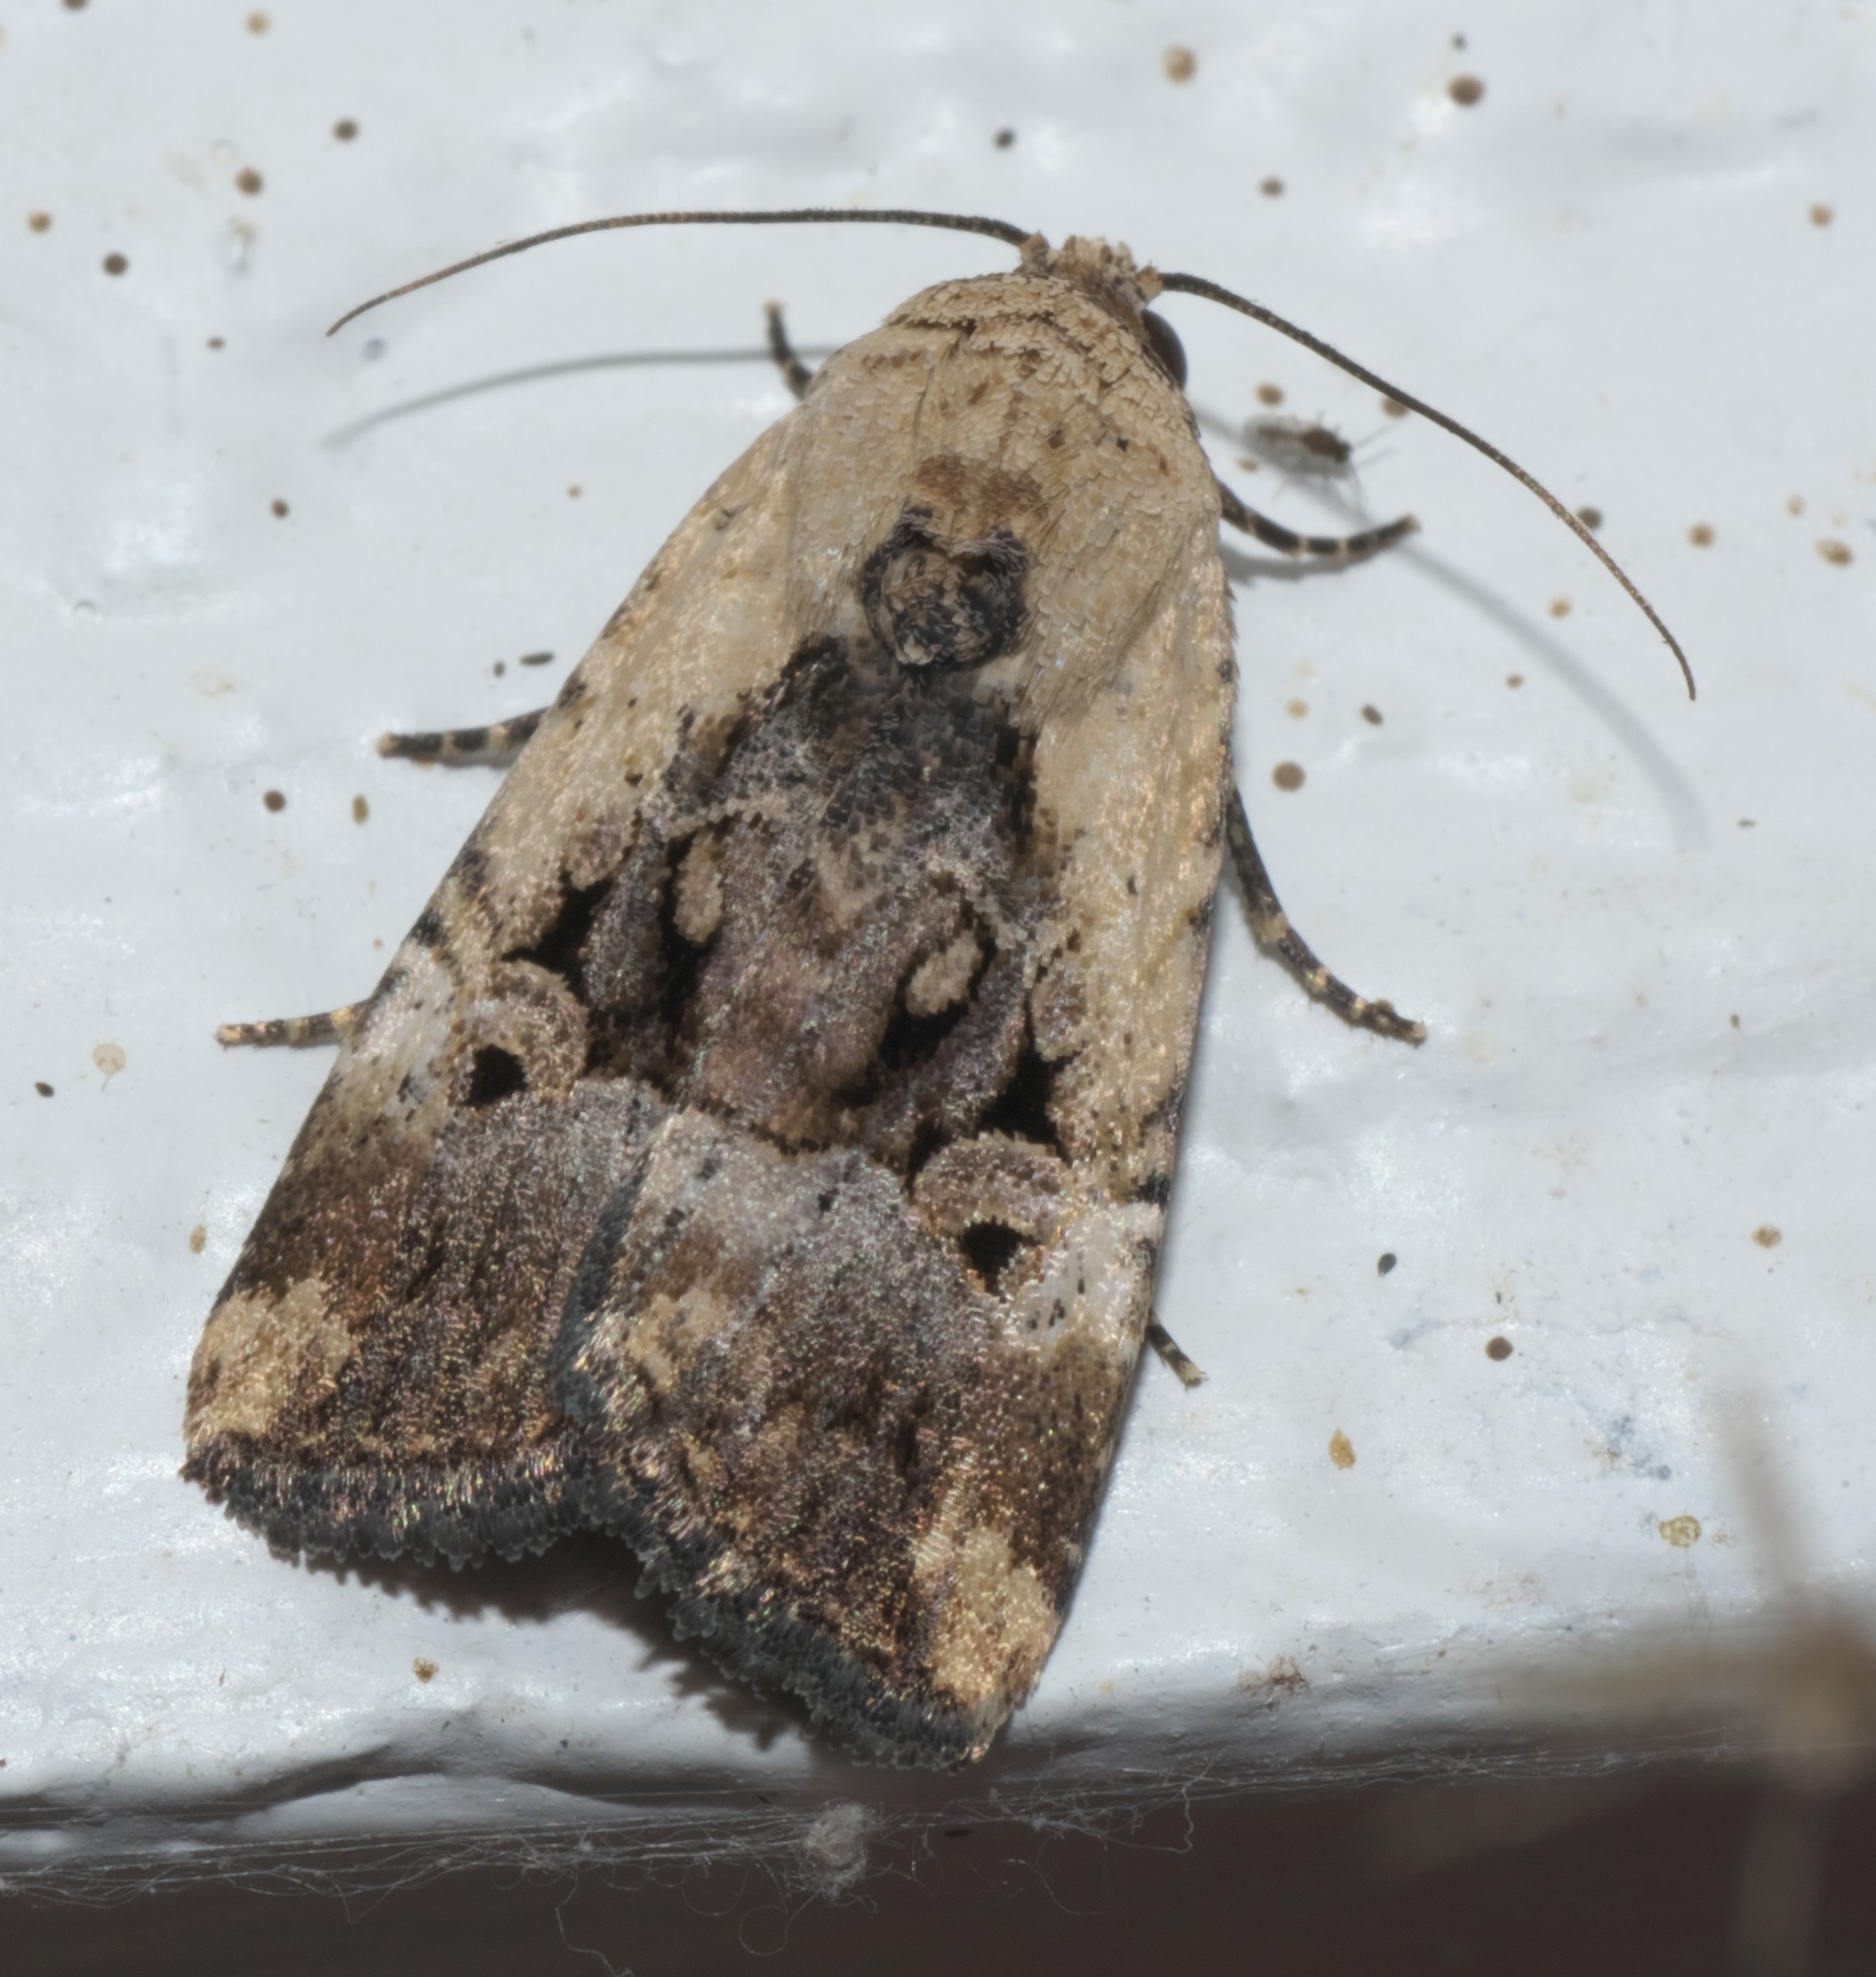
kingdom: Animalia
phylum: Arthropoda
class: Insecta
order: Lepidoptera
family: Noctuidae
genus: Elaphria
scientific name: Elaphria chalcedonia
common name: Chalcedony midget
